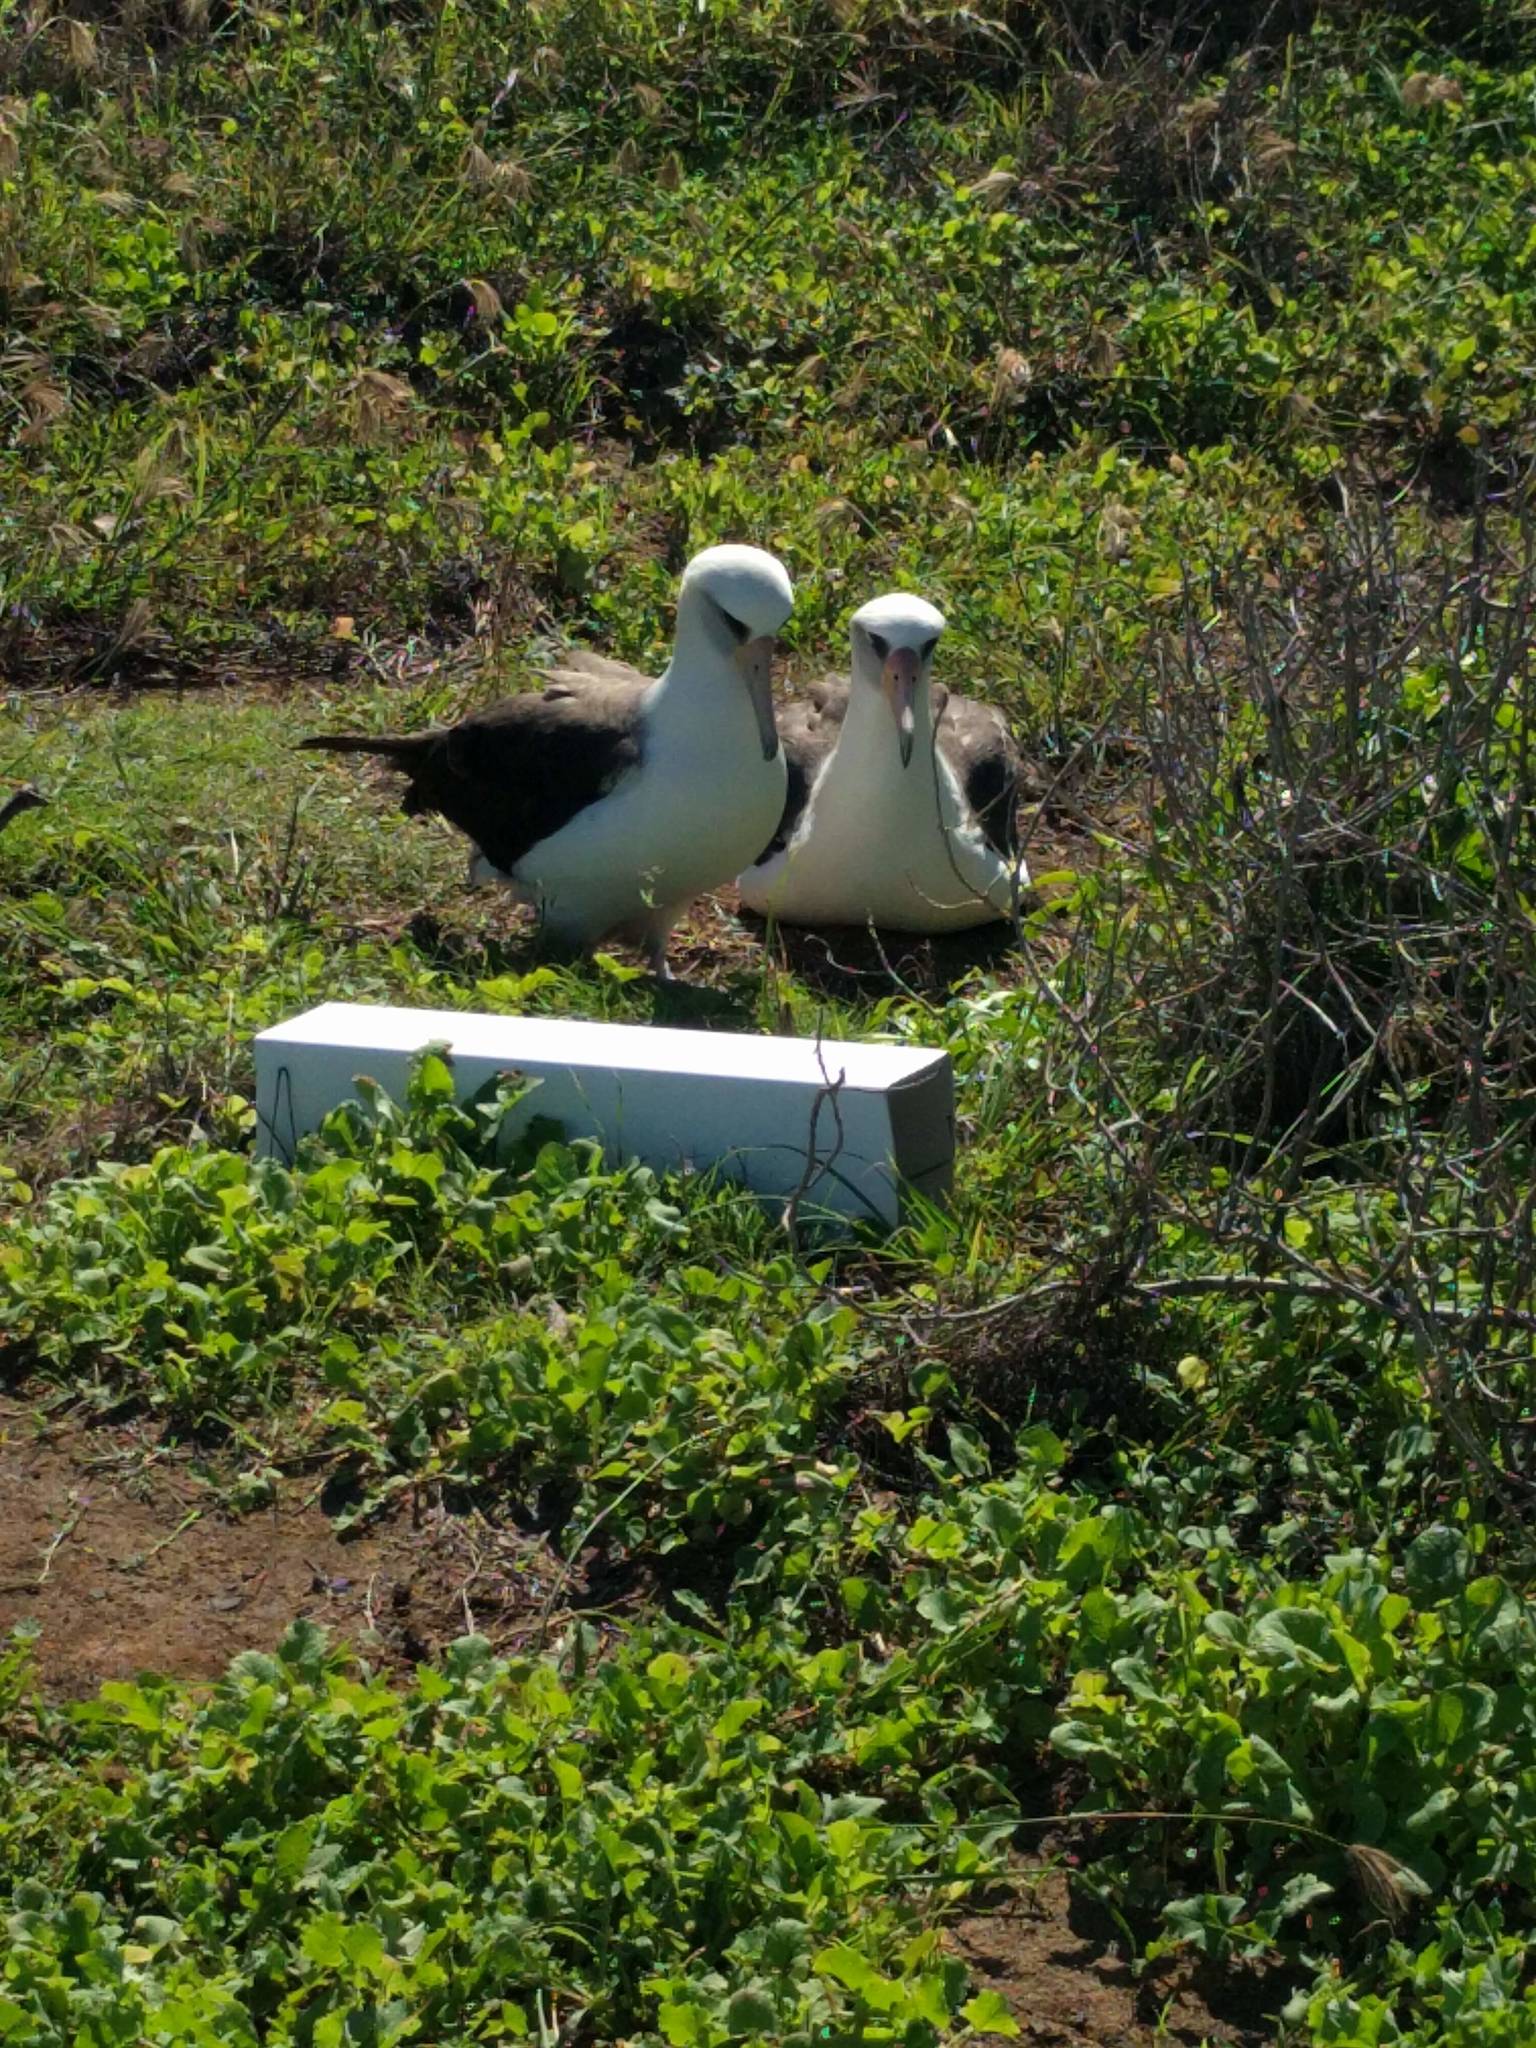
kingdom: Animalia
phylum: Chordata
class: Aves
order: Procellariiformes
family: Diomedeidae
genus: Phoebastria
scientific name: Phoebastria immutabilis
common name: Laysan albatross
